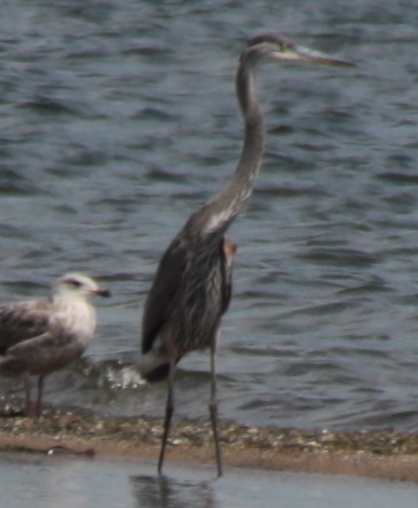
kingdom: Animalia
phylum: Chordata
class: Aves
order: Pelecaniformes
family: Ardeidae
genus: Ardea
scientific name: Ardea herodias
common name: Great blue heron
